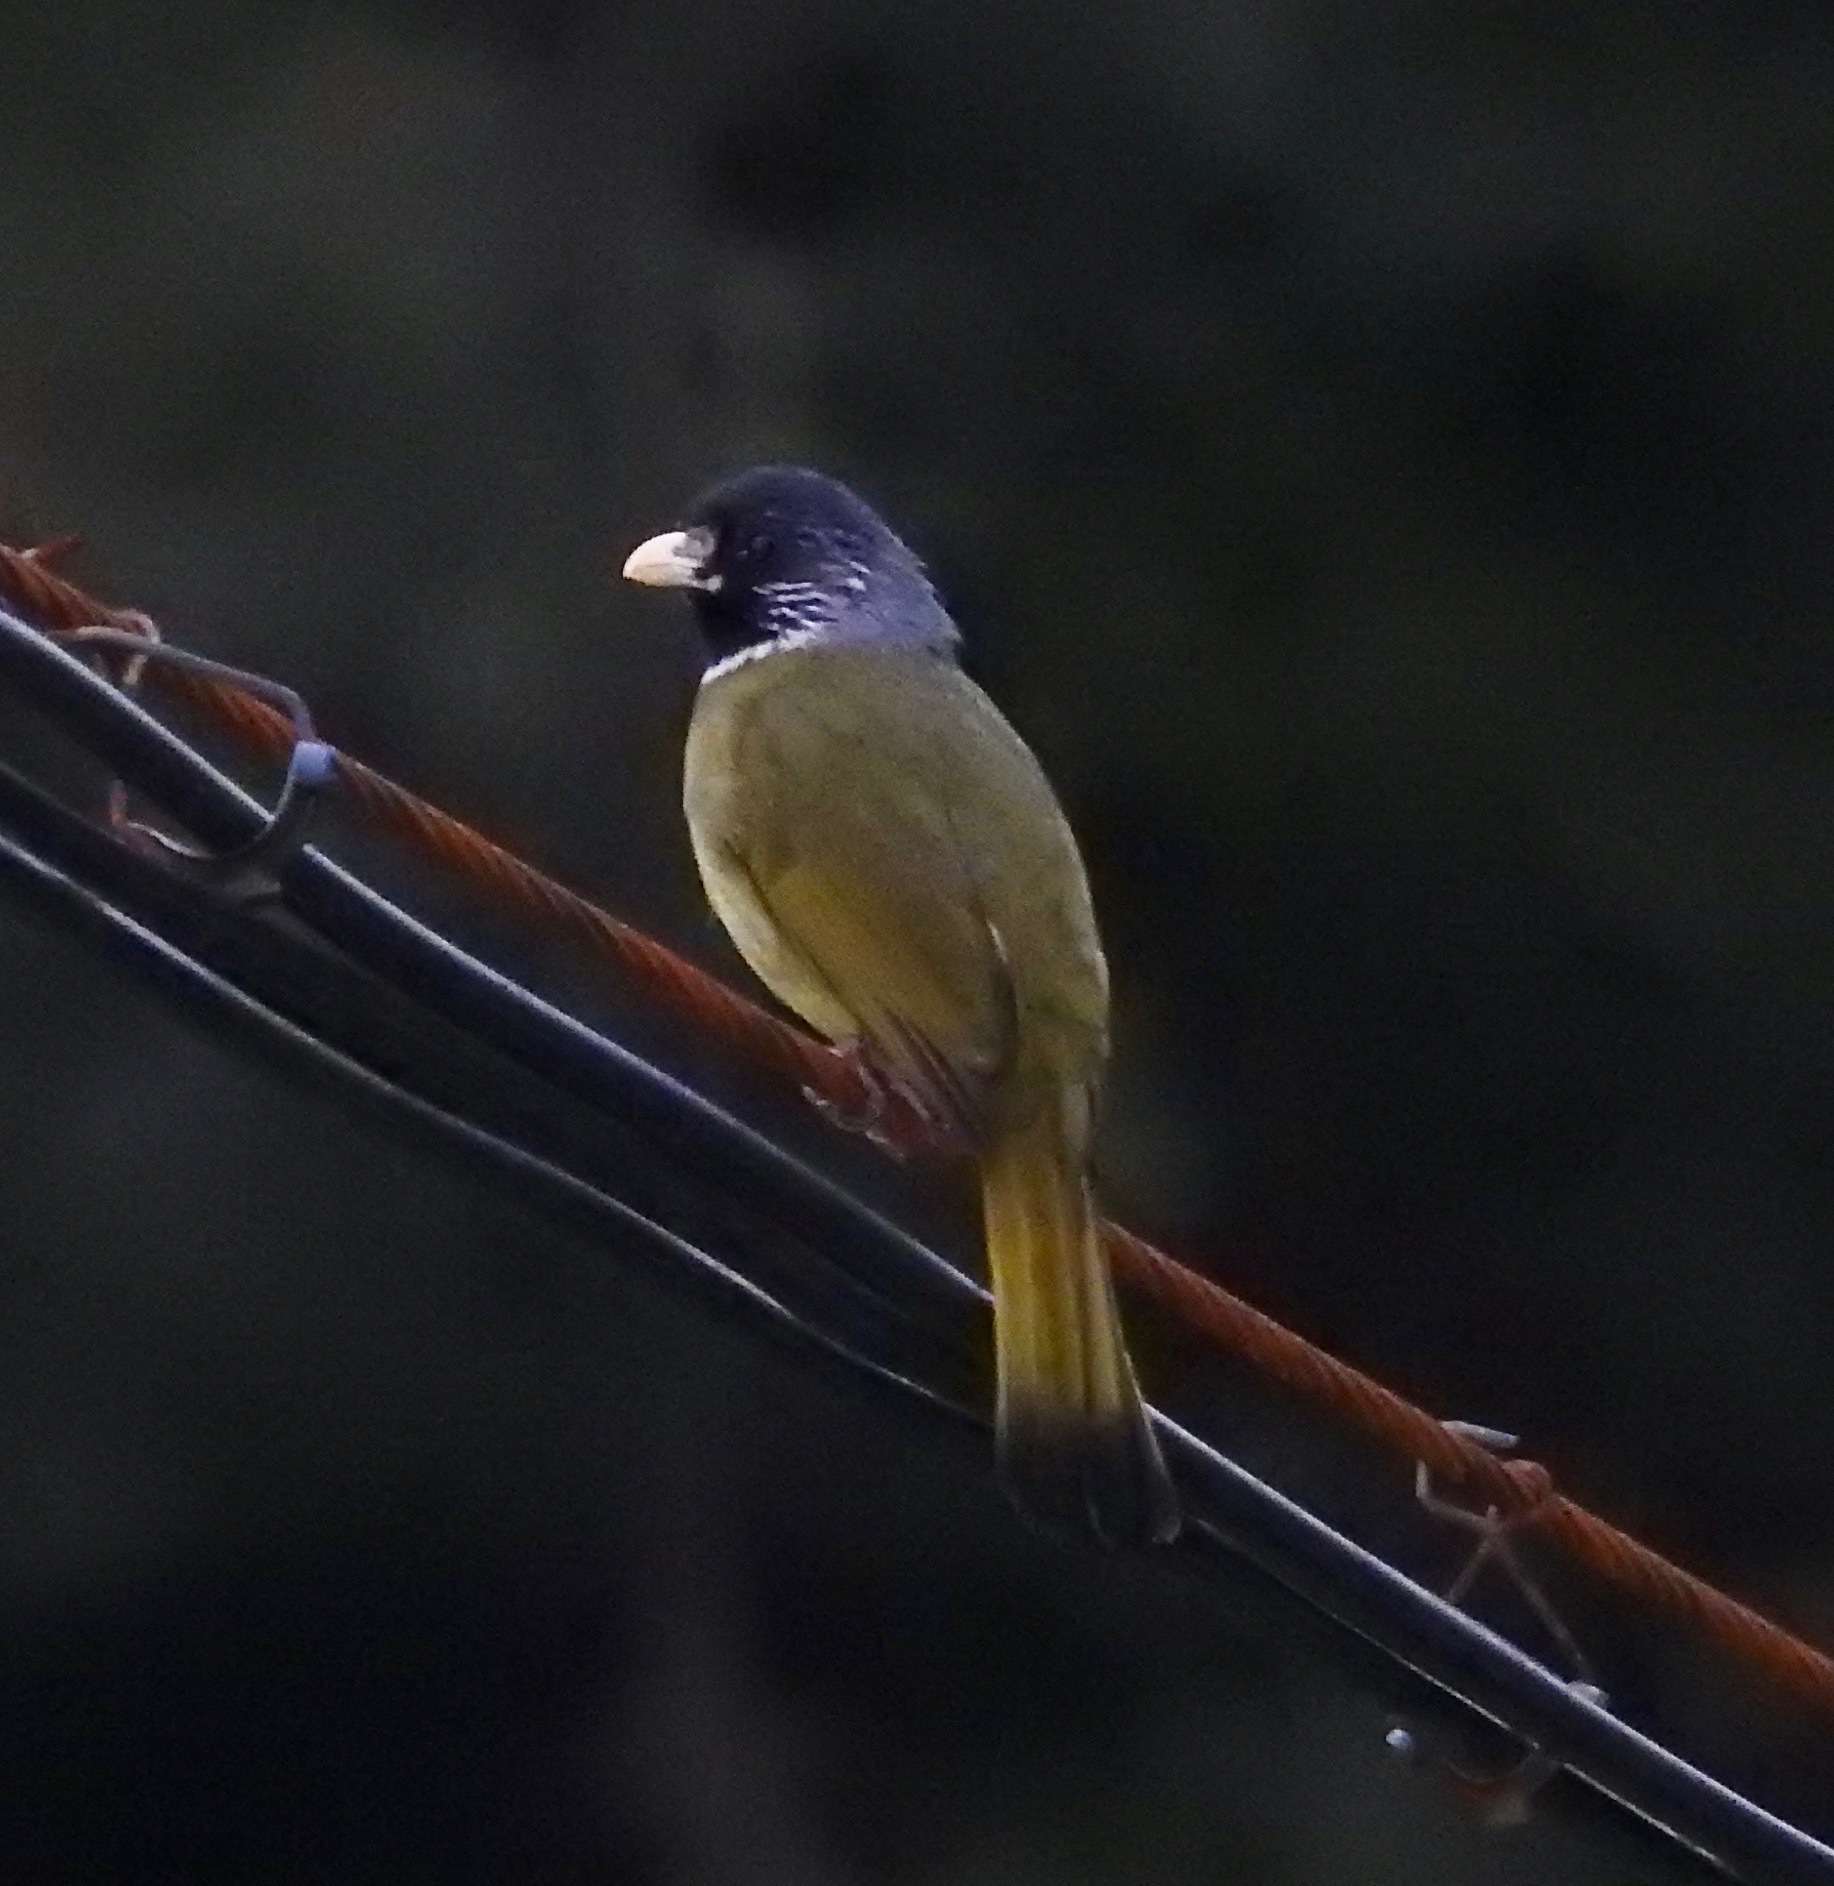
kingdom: Animalia
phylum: Chordata
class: Aves
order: Passeriformes
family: Pycnonotidae
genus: Spizixos
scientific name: Spizixos semitorques
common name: Collared finchbill
